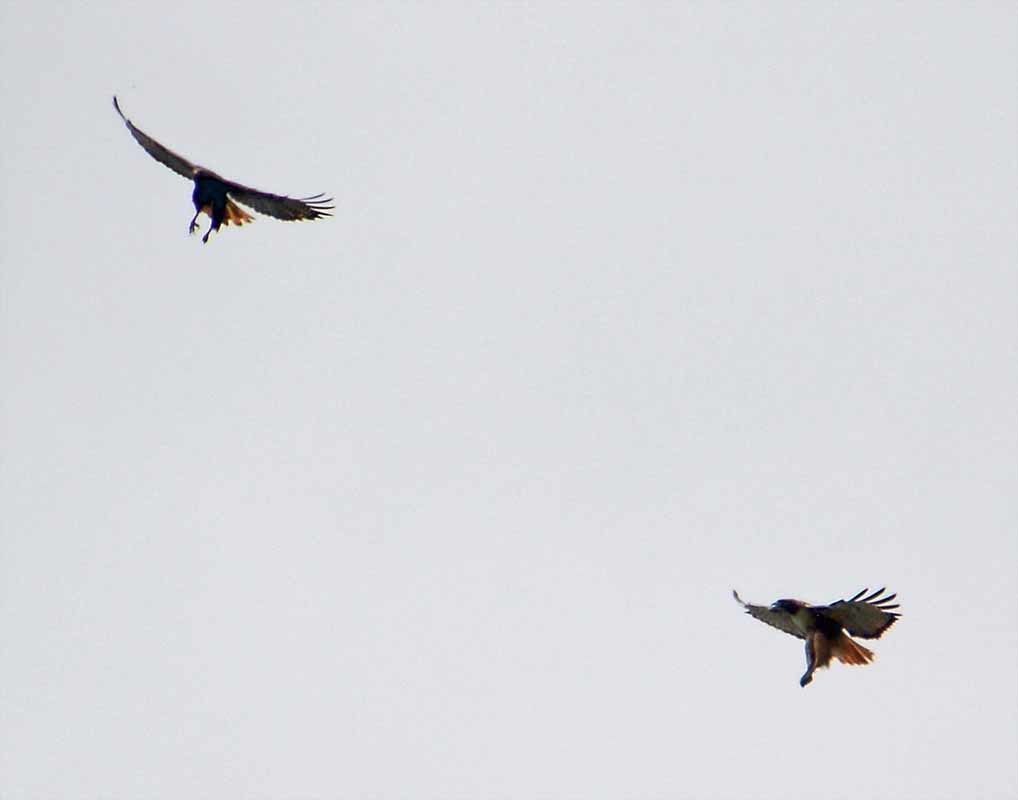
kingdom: Animalia
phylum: Chordata
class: Aves
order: Accipitriformes
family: Accipitridae
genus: Buteo
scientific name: Buteo jamaicensis
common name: Red-tailed hawk
